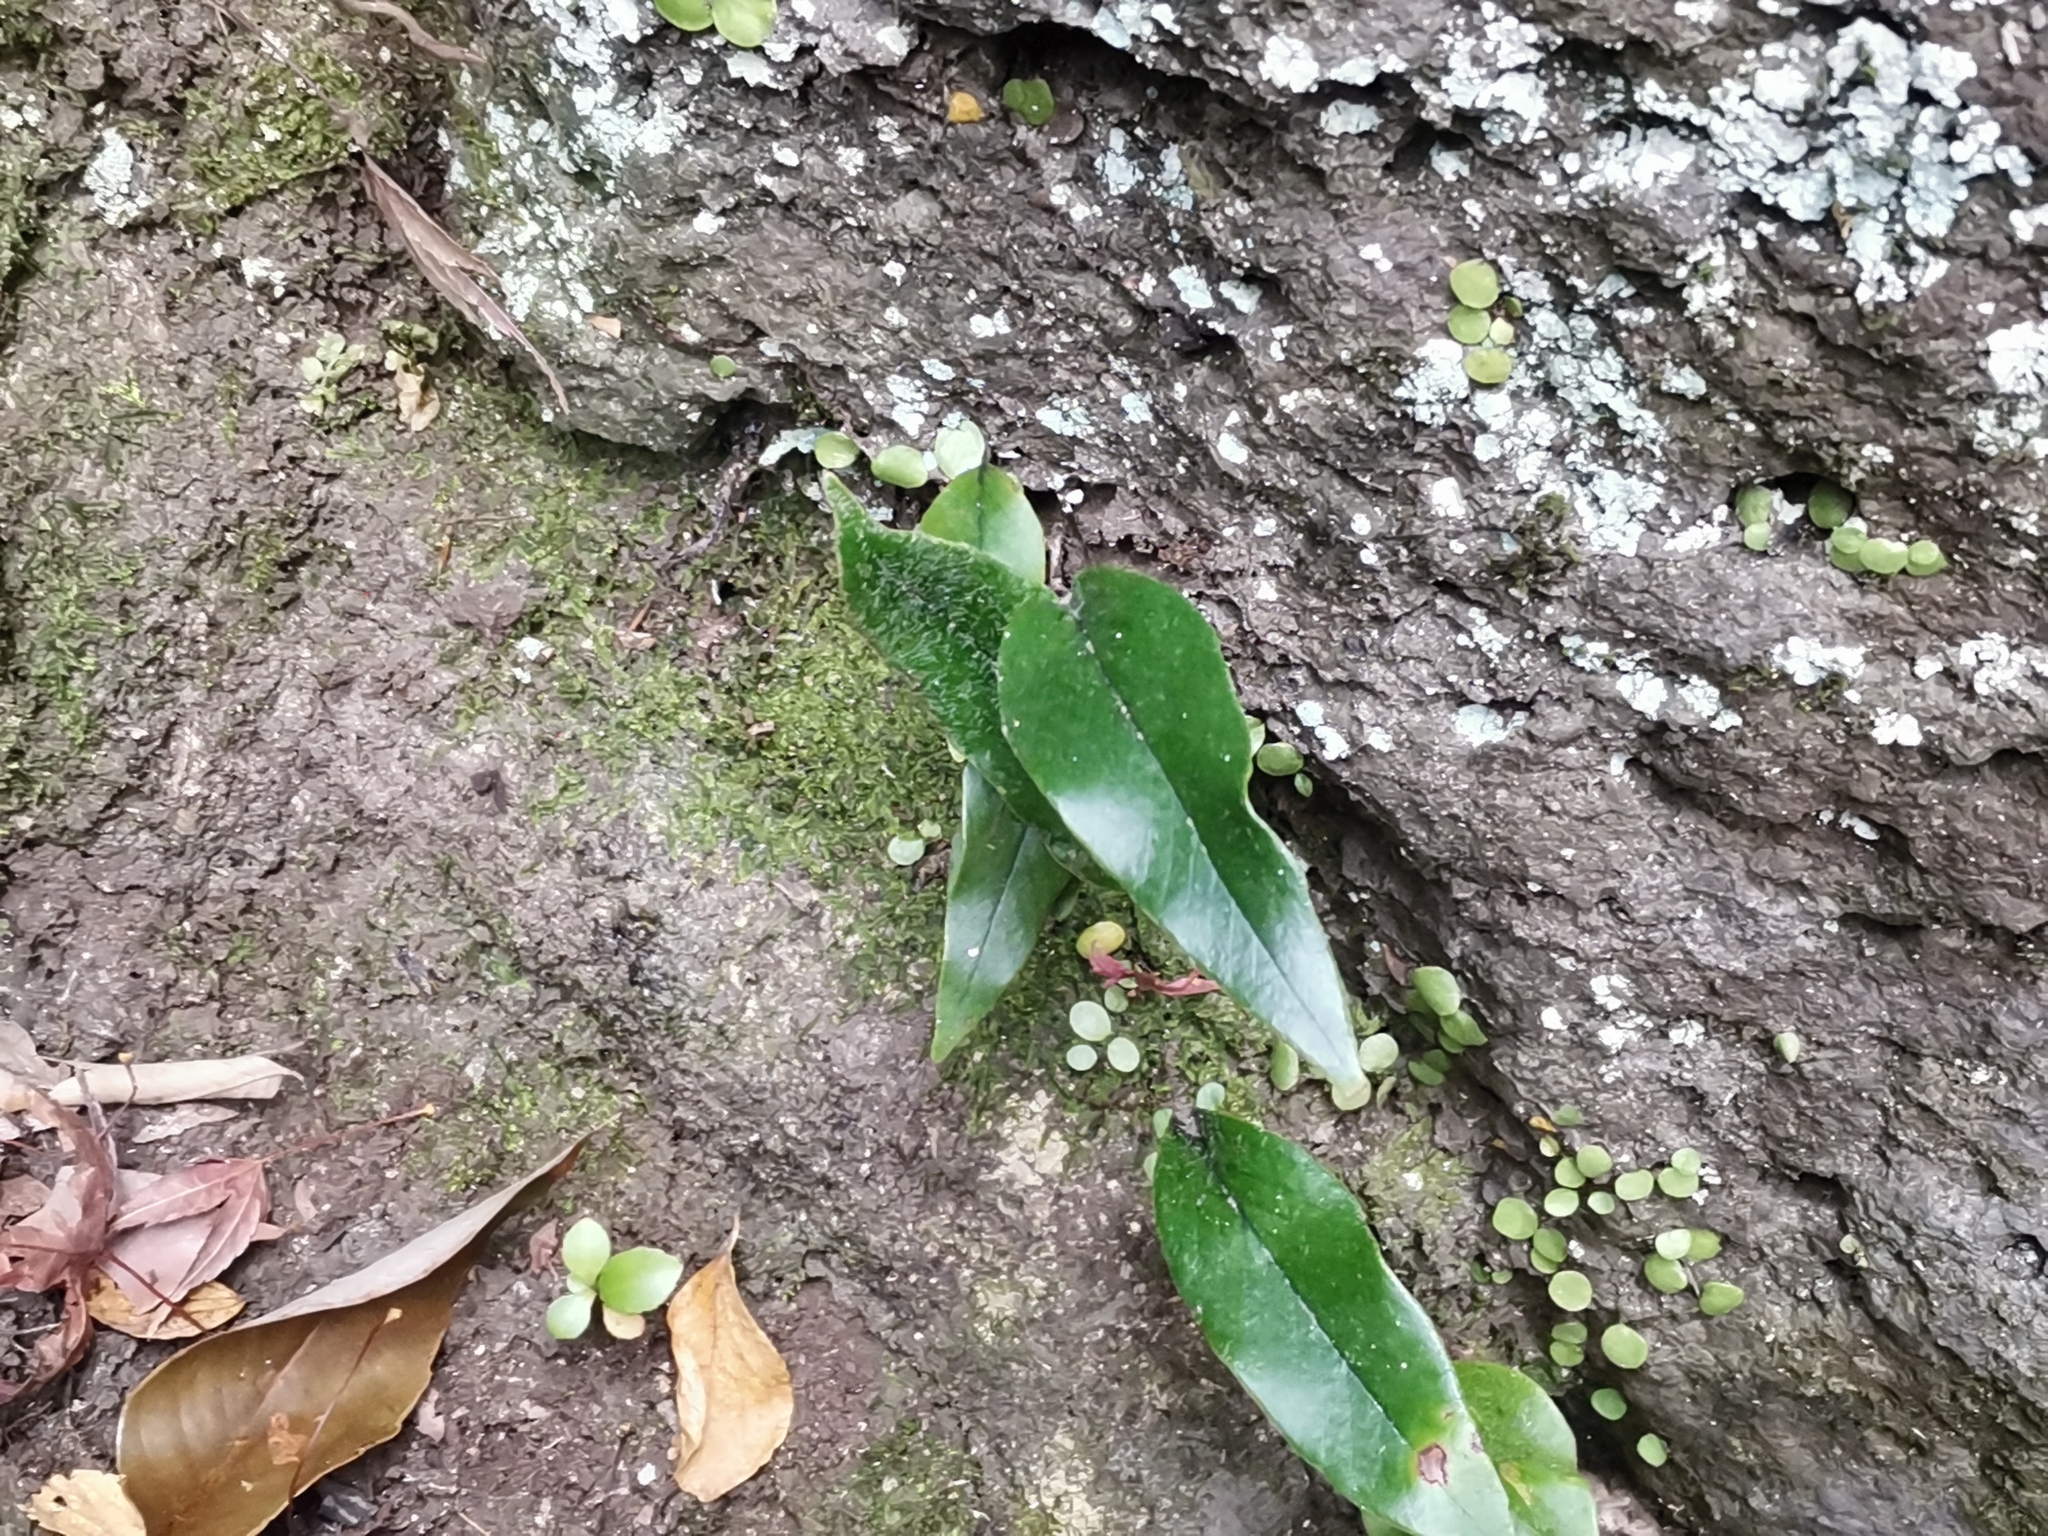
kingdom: Plantae
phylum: Tracheophyta
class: Polypodiopsida
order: Polypodiales
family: Polypodiaceae
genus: Pyrrosia
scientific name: Pyrrosia lingua
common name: Felt fern
